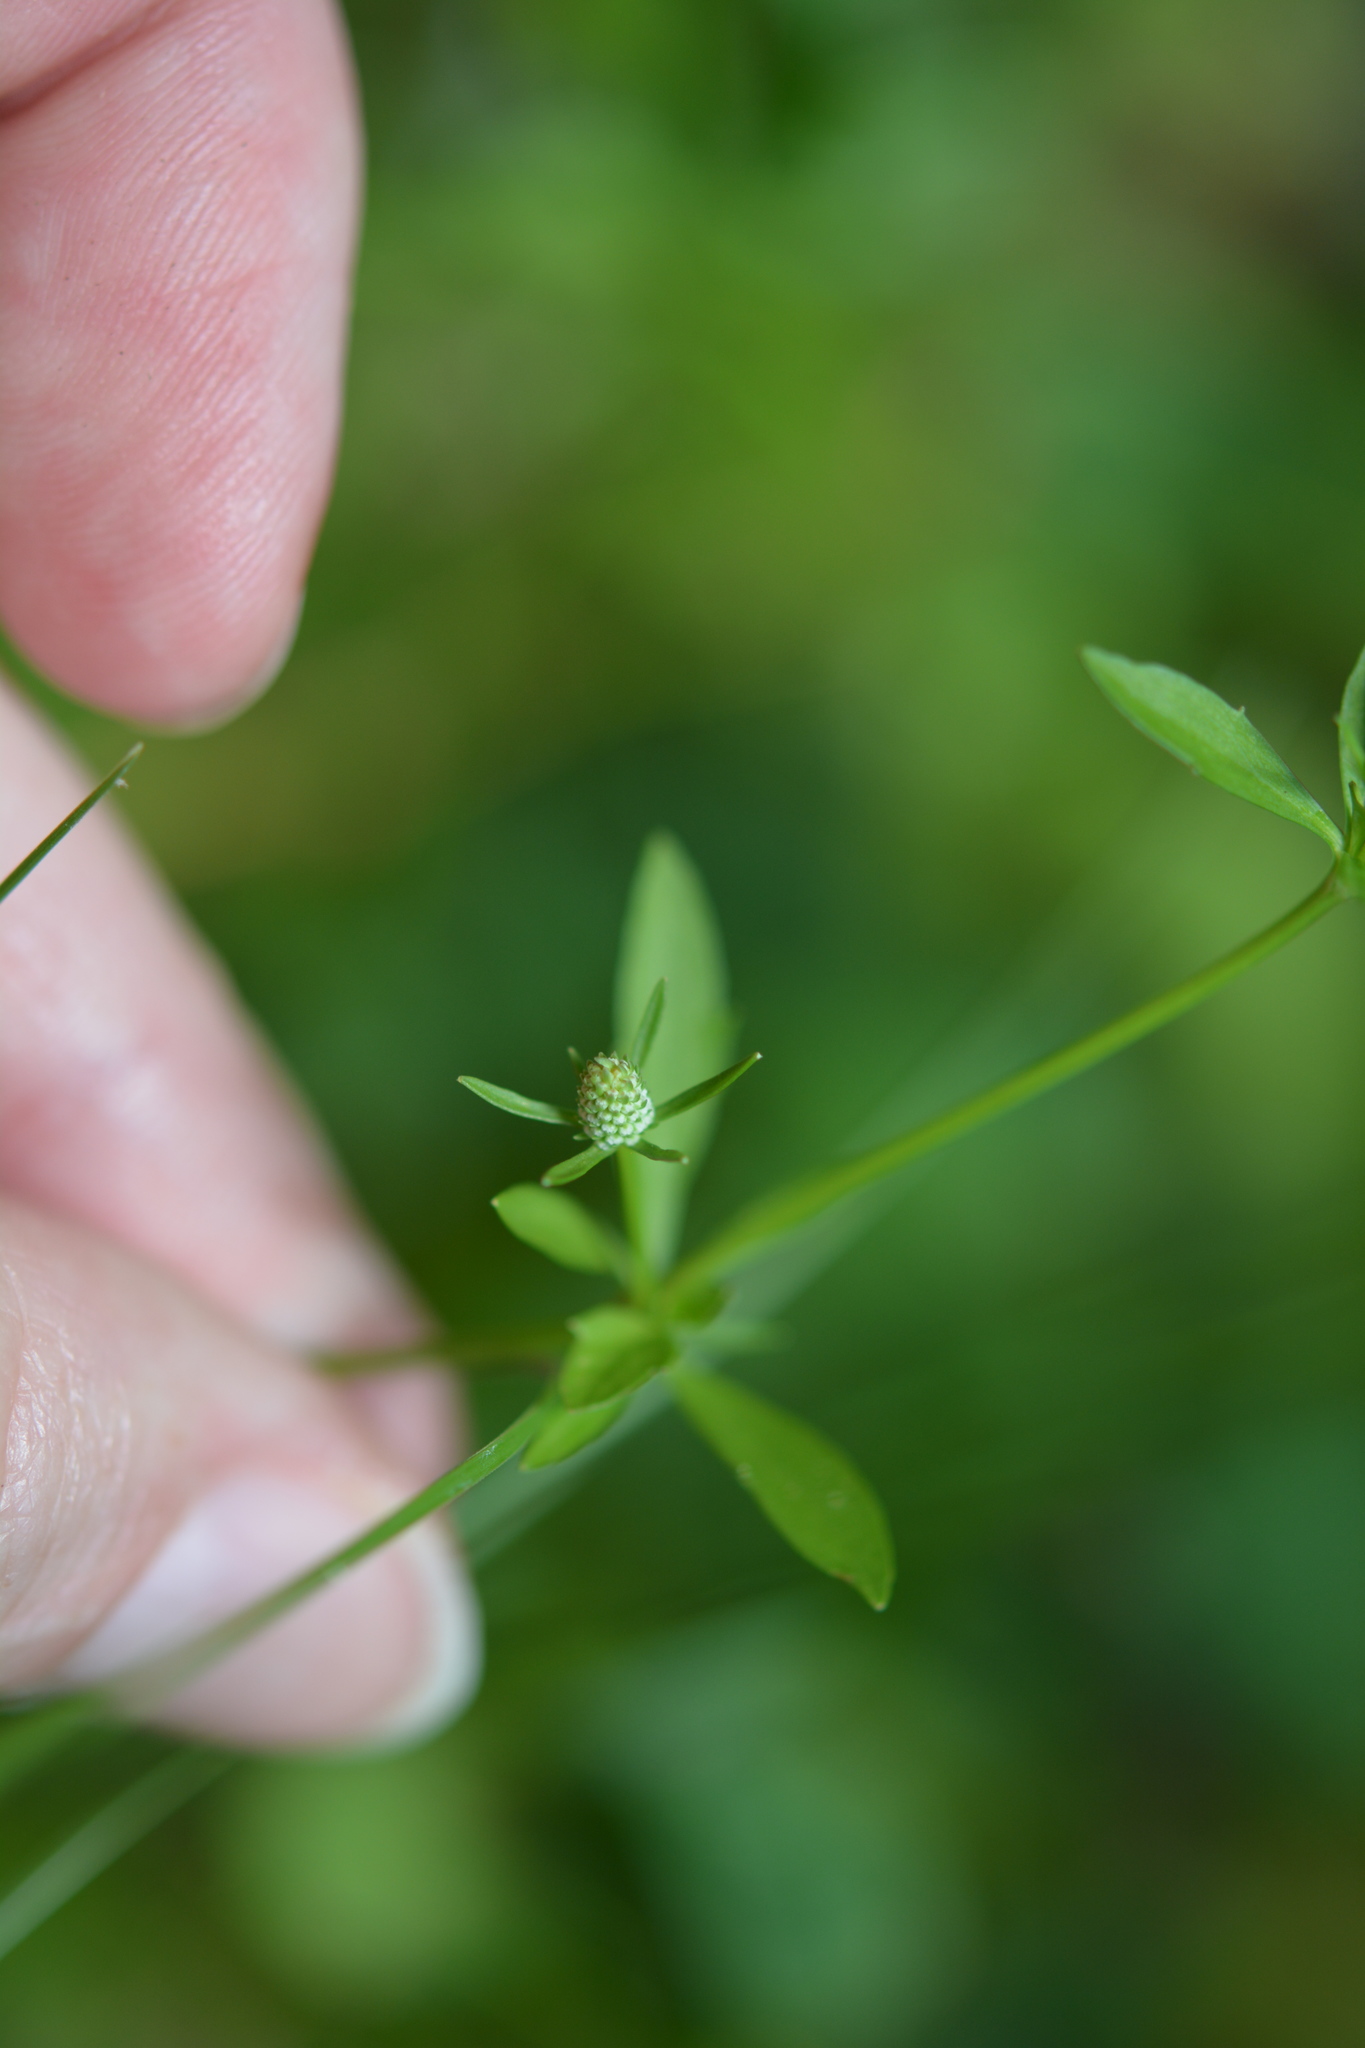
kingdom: Plantae
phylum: Tracheophyta
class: Magnoliopsida
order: Apiales
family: Apiaceae
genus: Eryngium
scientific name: Eryngium prostratum
